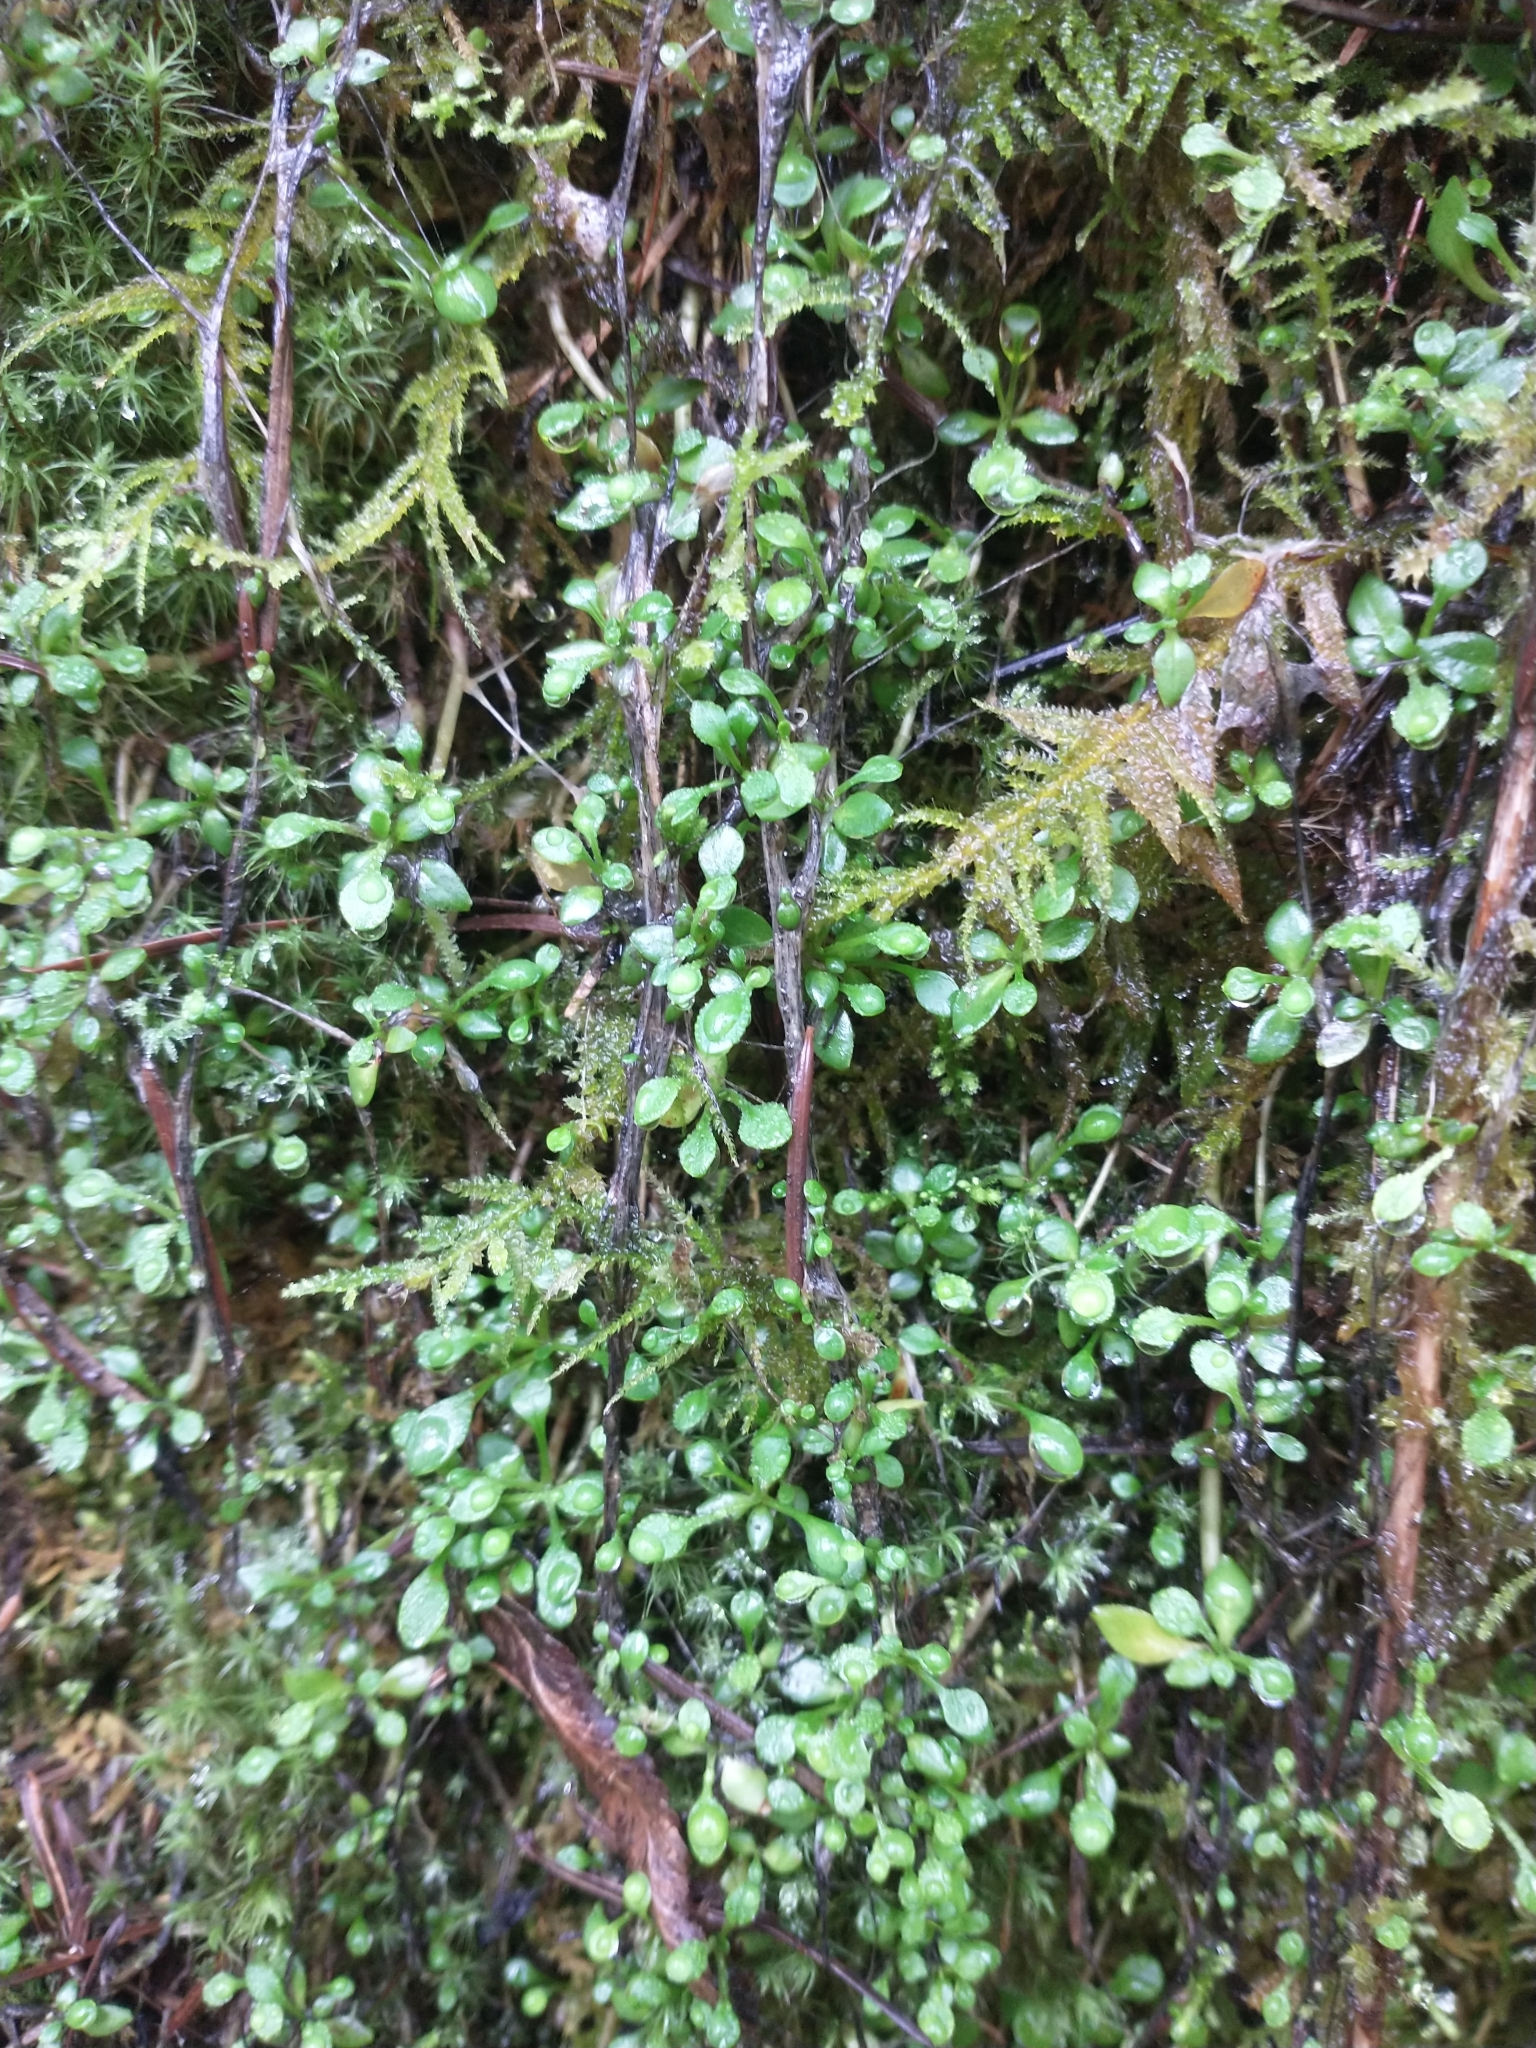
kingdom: Plantae
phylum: Tracheophyta
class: Magnoliopsida
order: Caryophyllales
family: Montiaceae
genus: Montia
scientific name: Montia parvifolia
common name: Small-leaved blinks
